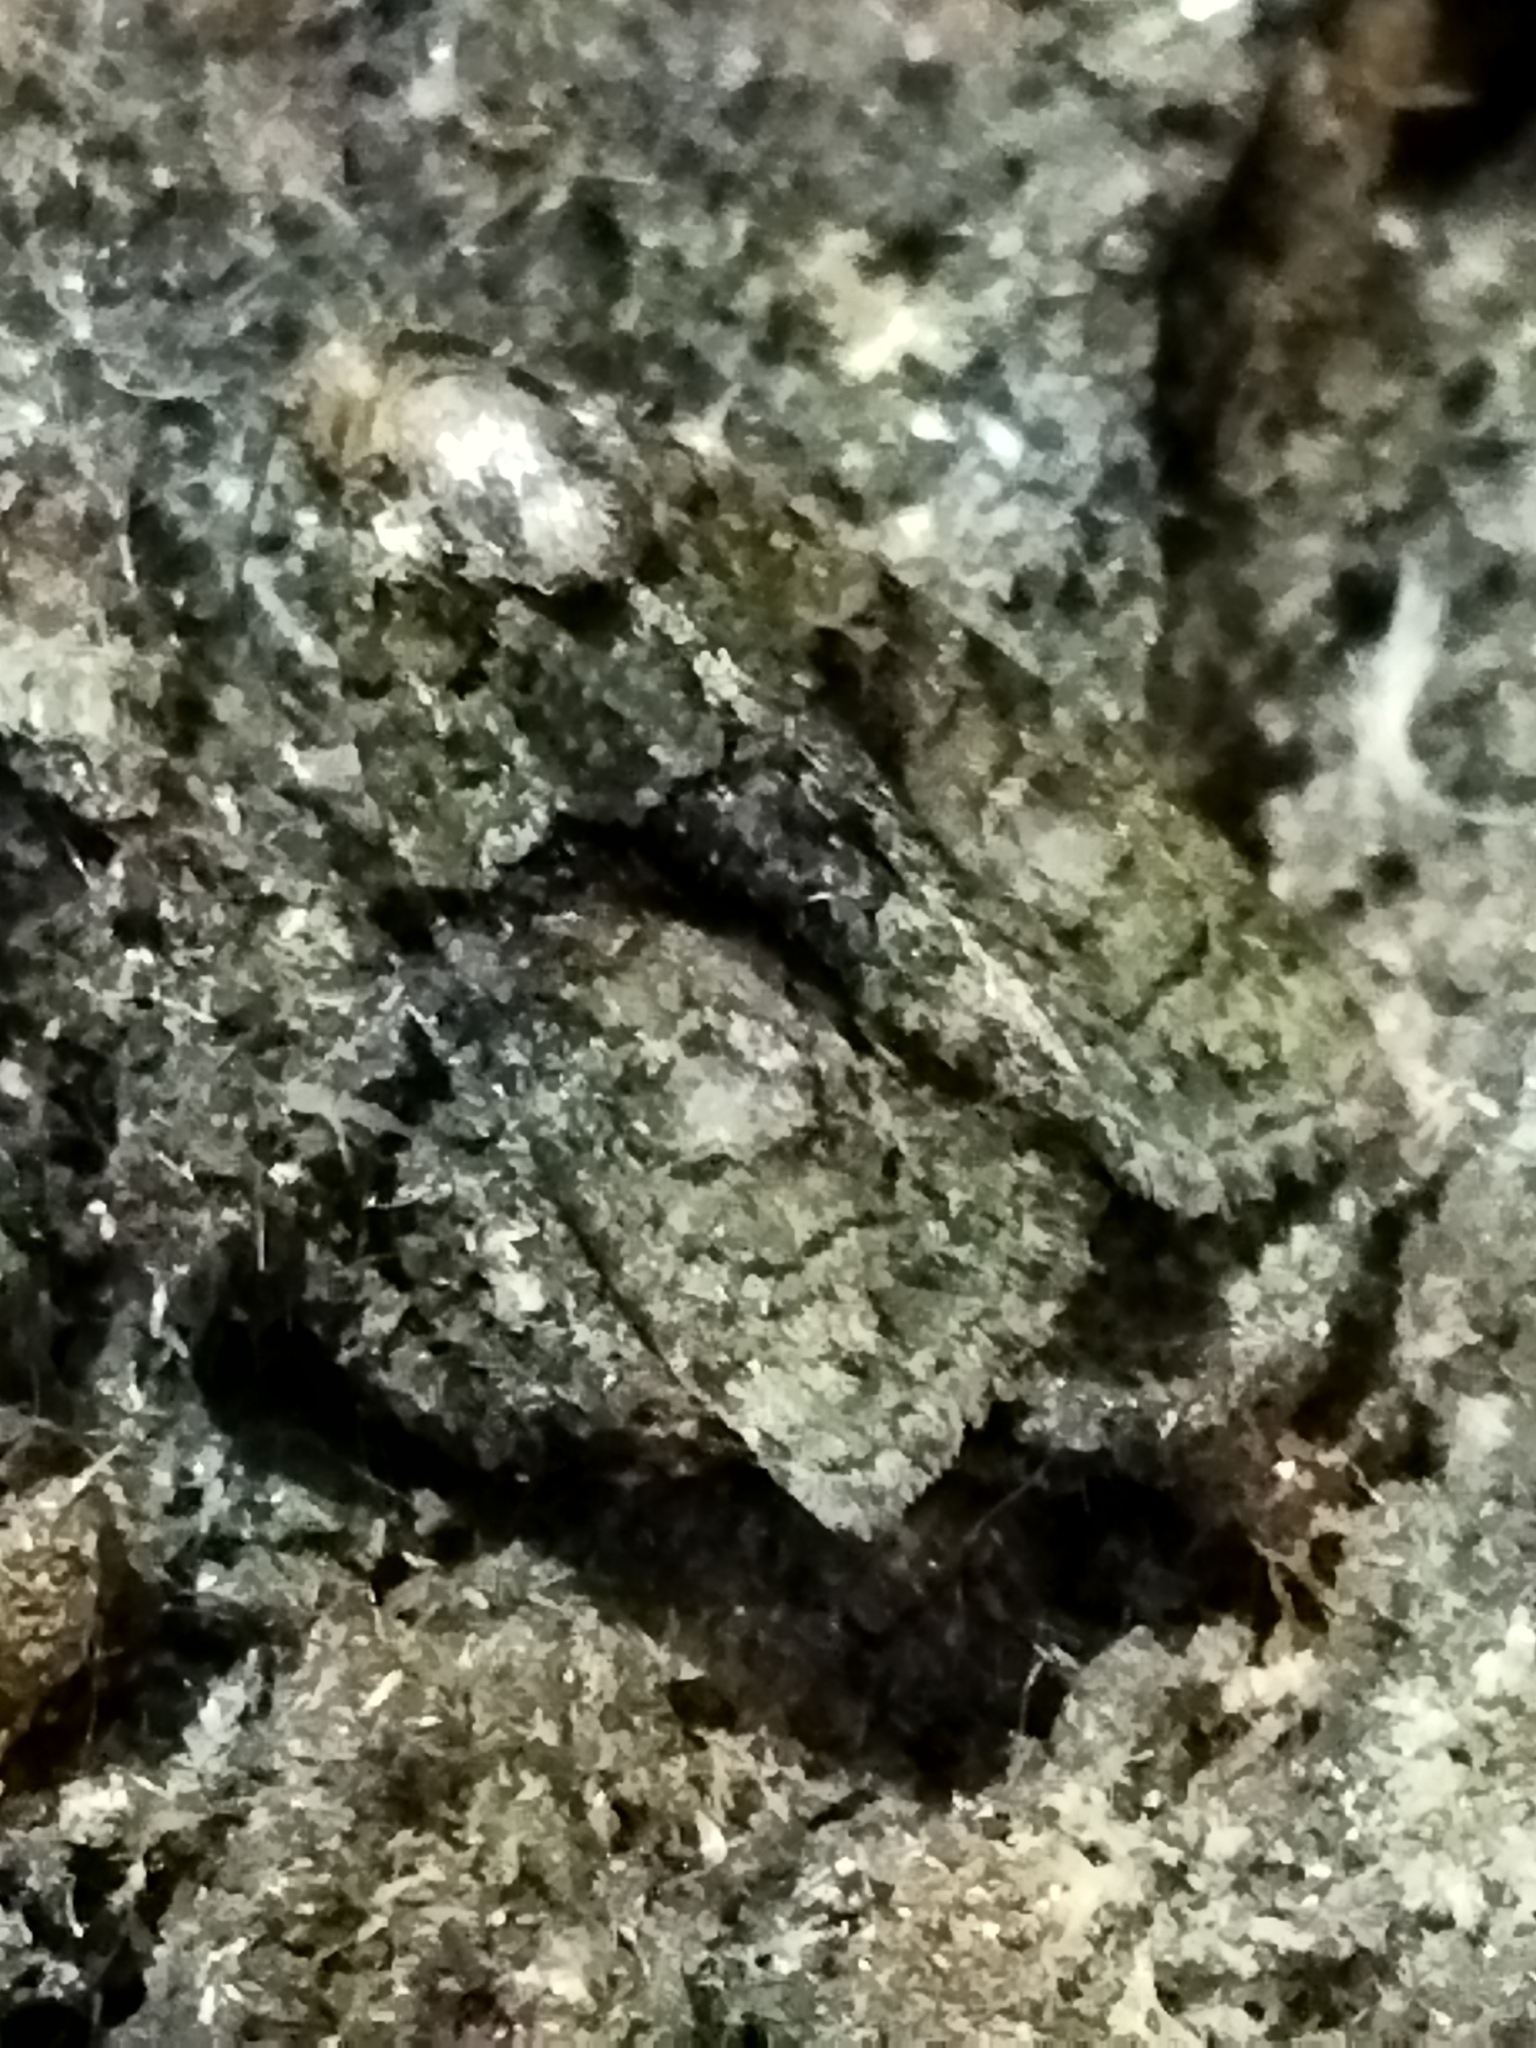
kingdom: Animalia
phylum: Arthropoda
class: Insecta
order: Lepidoptera
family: Noctuidae
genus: Cryphia
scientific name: Cryphia algae
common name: Tree-lichen beauty
